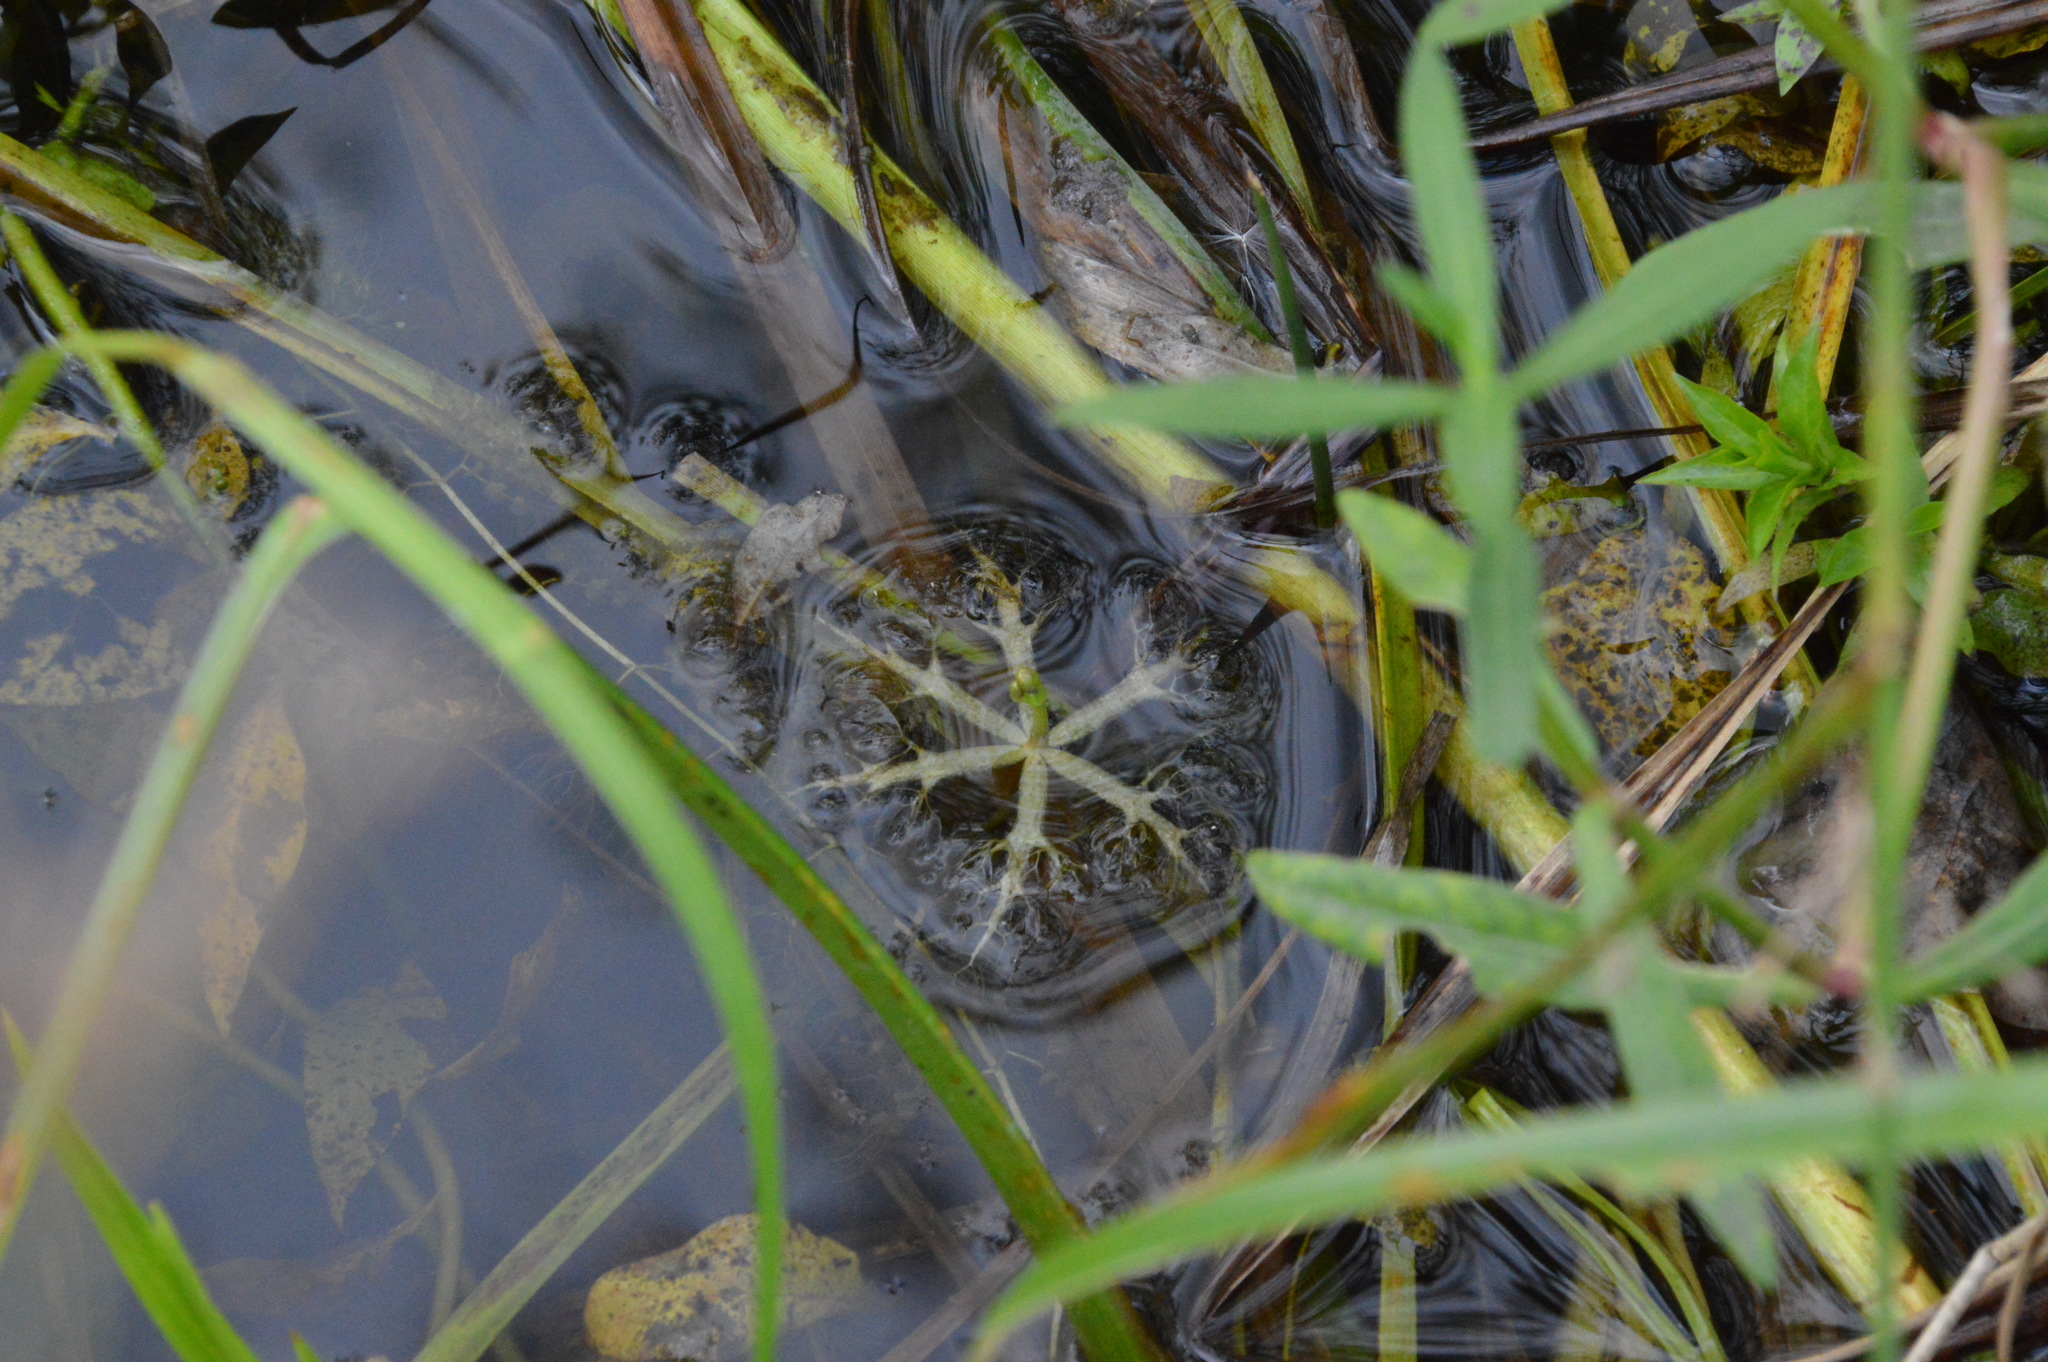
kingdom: Plantae
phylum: Tracheophyta
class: Magnoliopsida
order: Lamiales
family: Lentibulariaceae
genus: Utricularia
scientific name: Utricularia radiata
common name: Floating bladderwort
